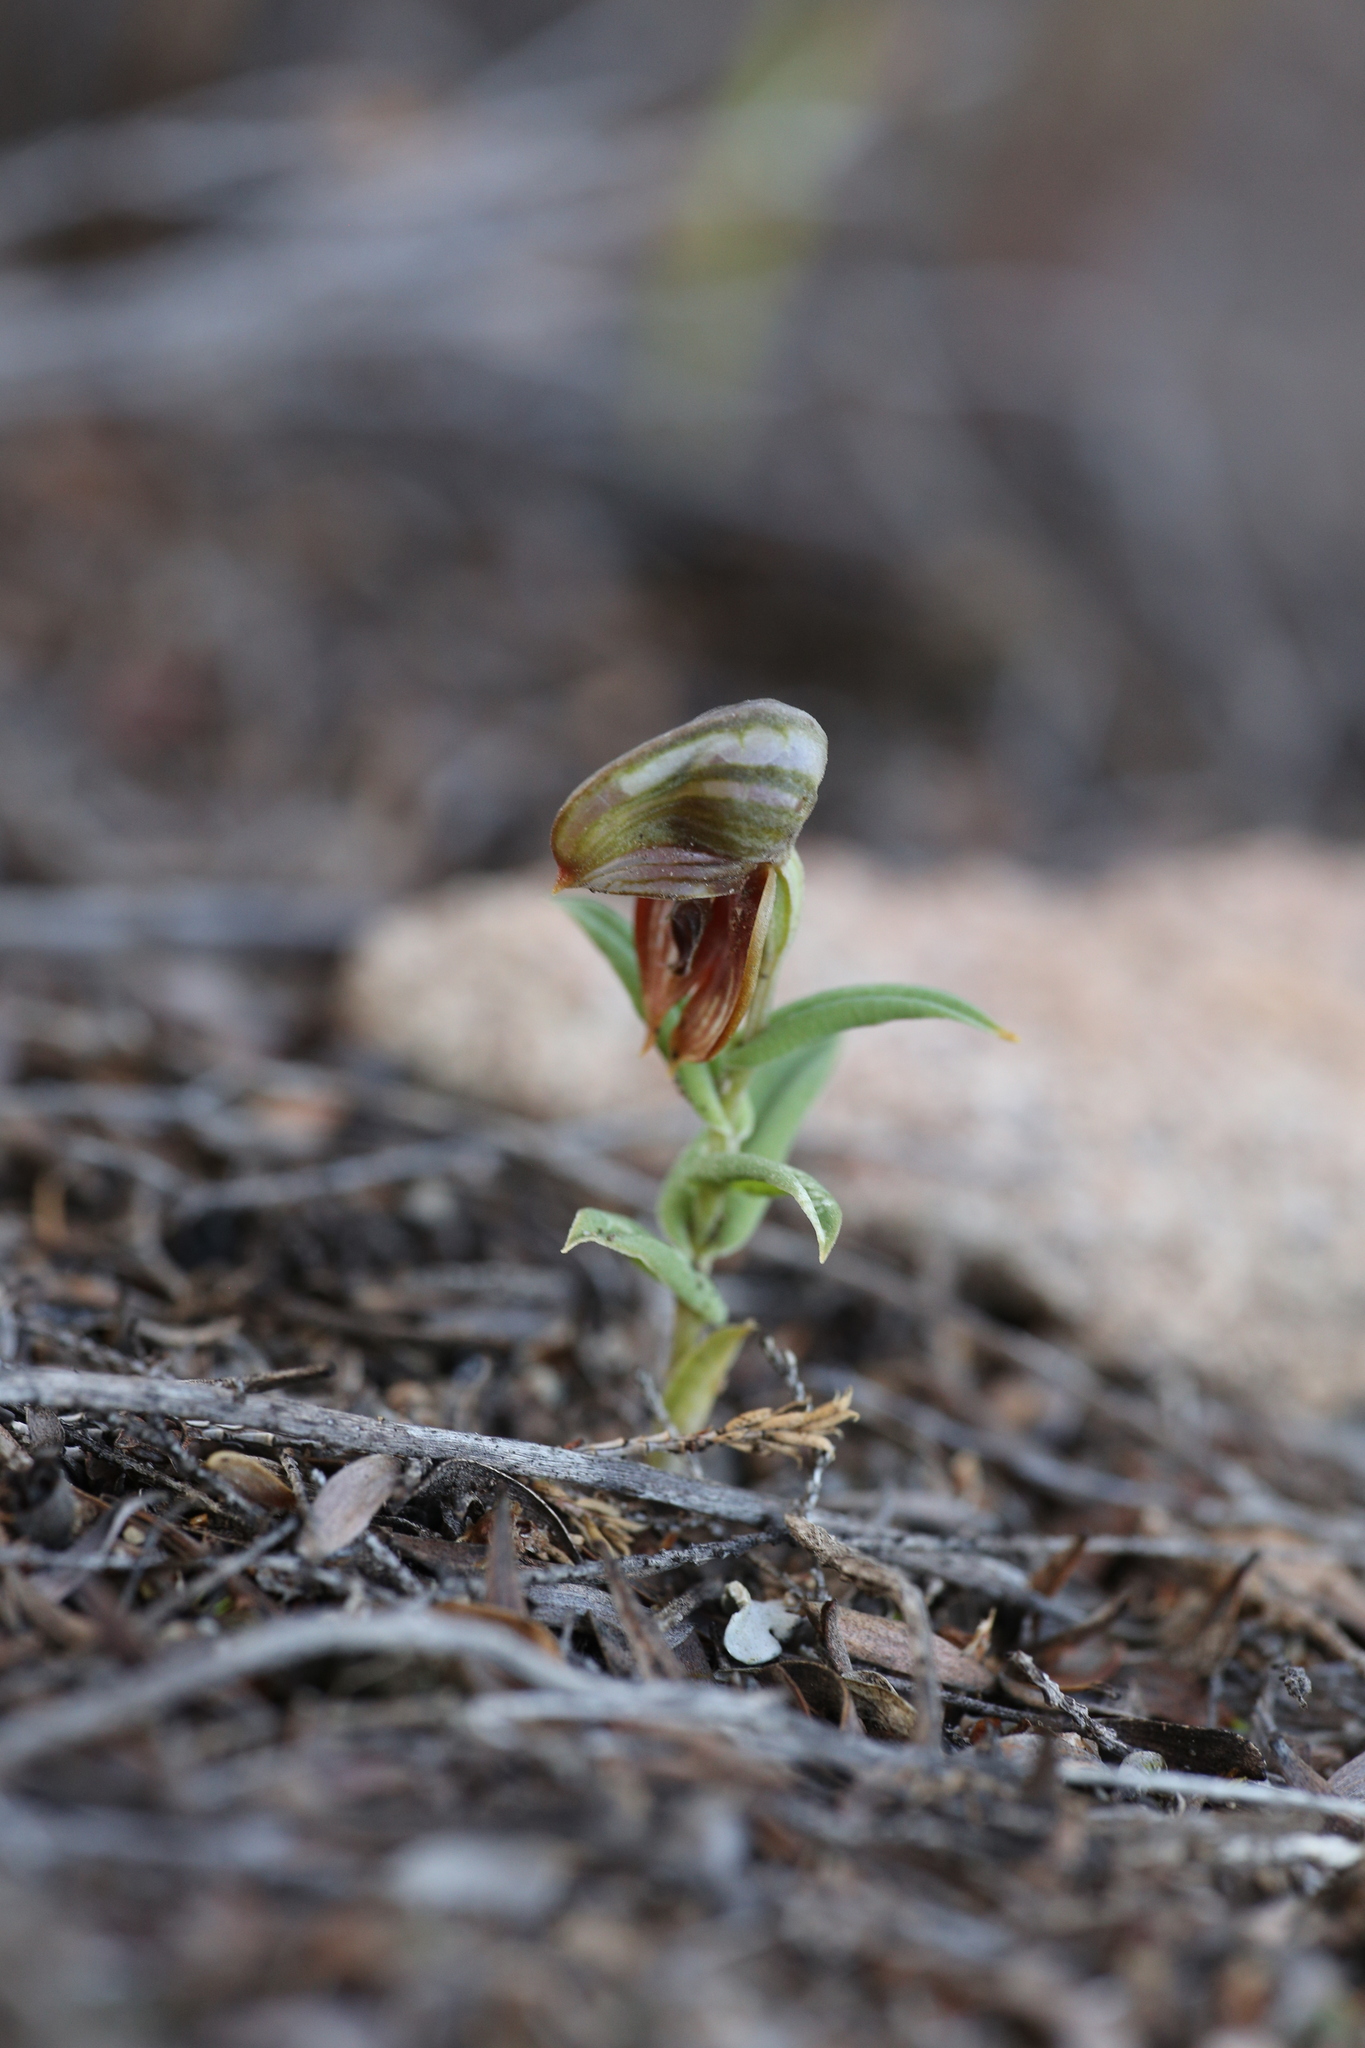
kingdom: Plantae
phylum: Tracheophyta
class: Liliopsida
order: Asparagales
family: Orchidaceae
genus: Pterostylis
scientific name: Pterostylis arbuscula
